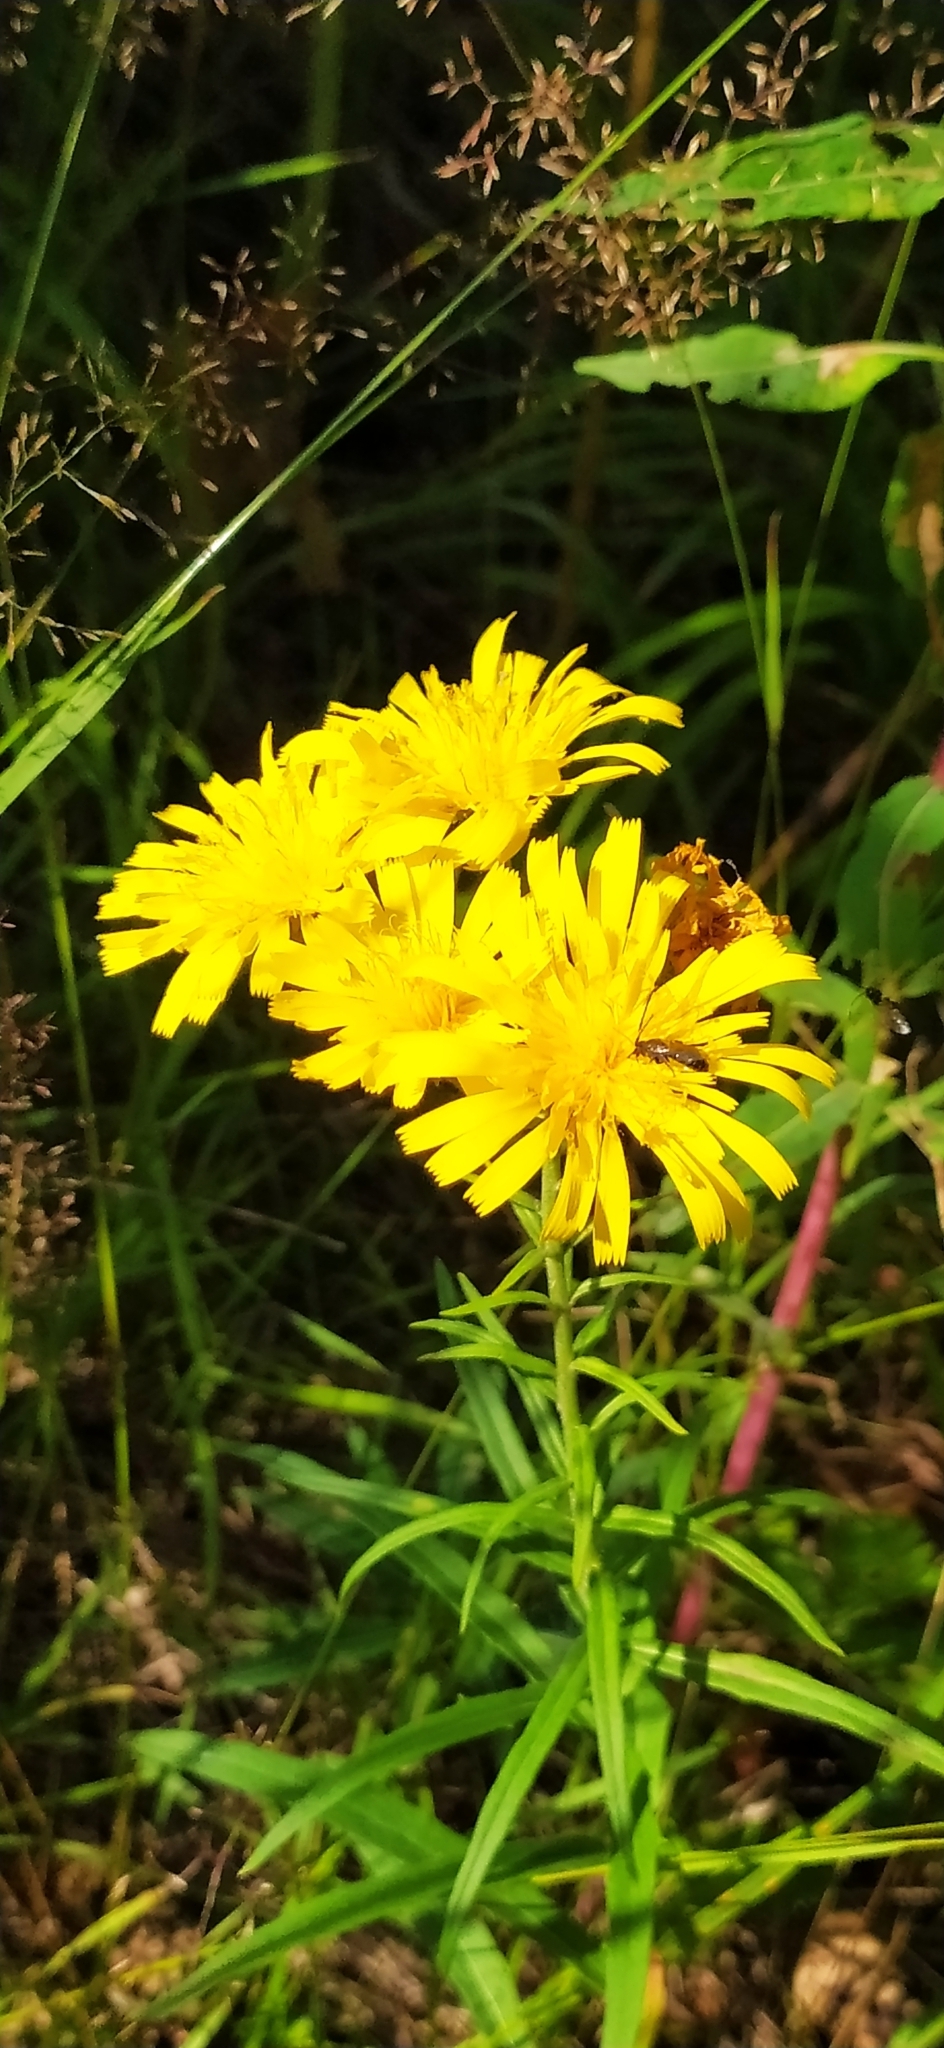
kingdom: Plantae
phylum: Tracheophyta
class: Magnoliopsida
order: Asterales
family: Asteraceae
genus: Hieracium
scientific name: Hieracium umbellatum
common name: Northern hawkweed
